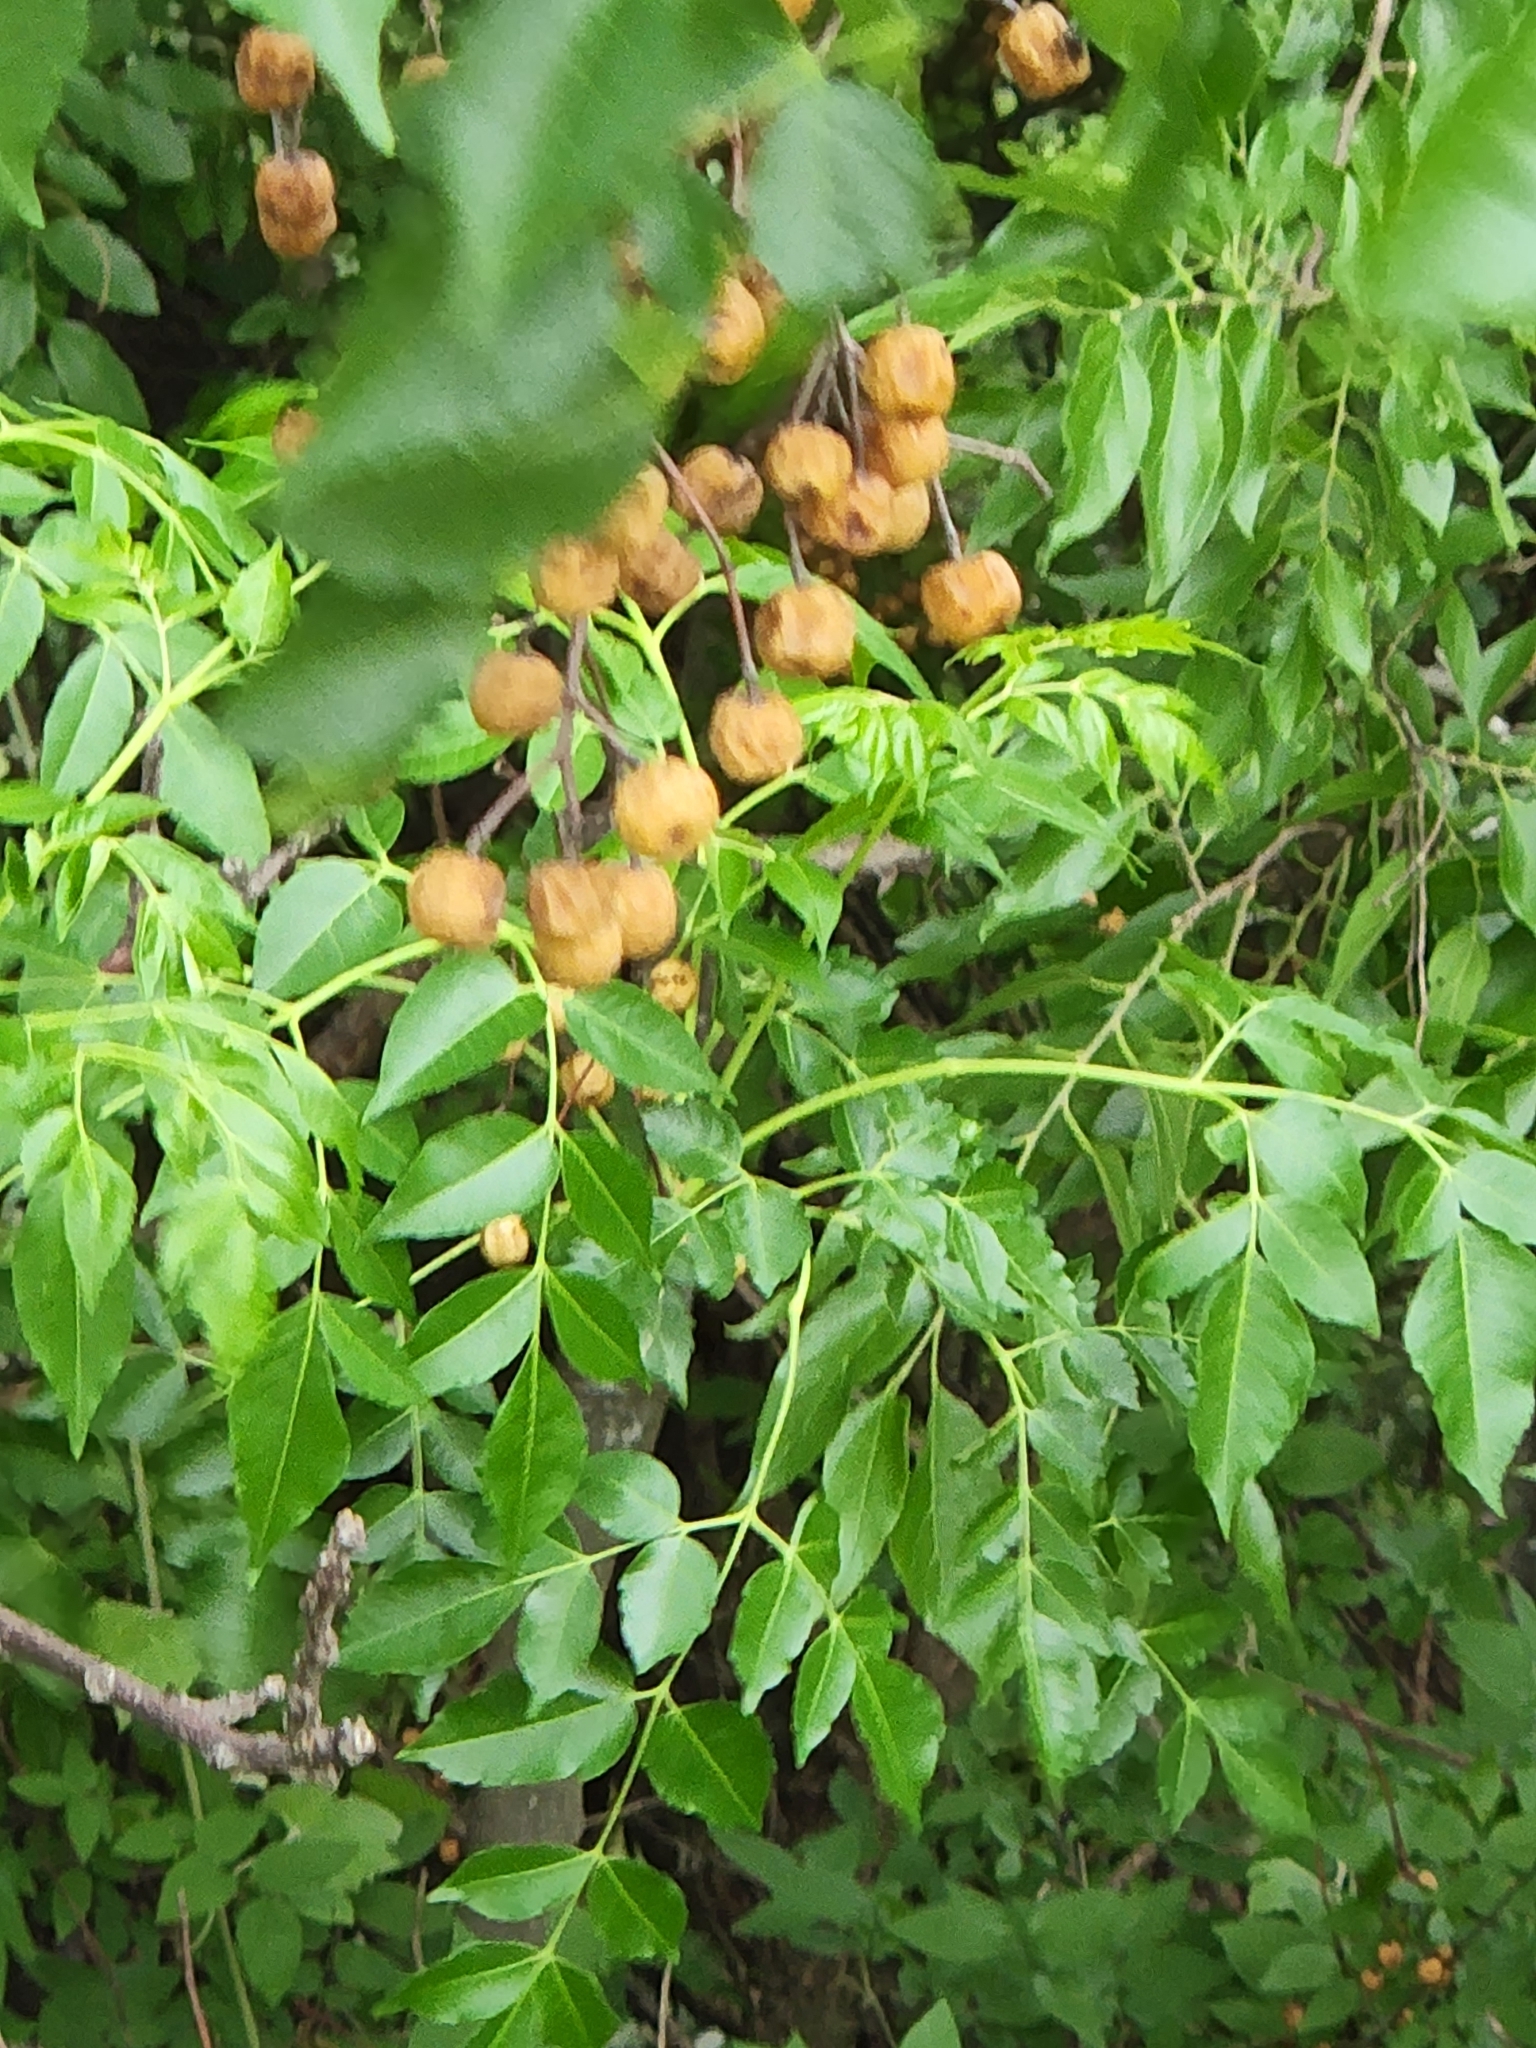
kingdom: Plantae
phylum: Tracheophyta
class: Magnoliopsida
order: Sapindales
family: Meliaceae
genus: Melia
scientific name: Melia azedarach
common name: Chinaberrytree
